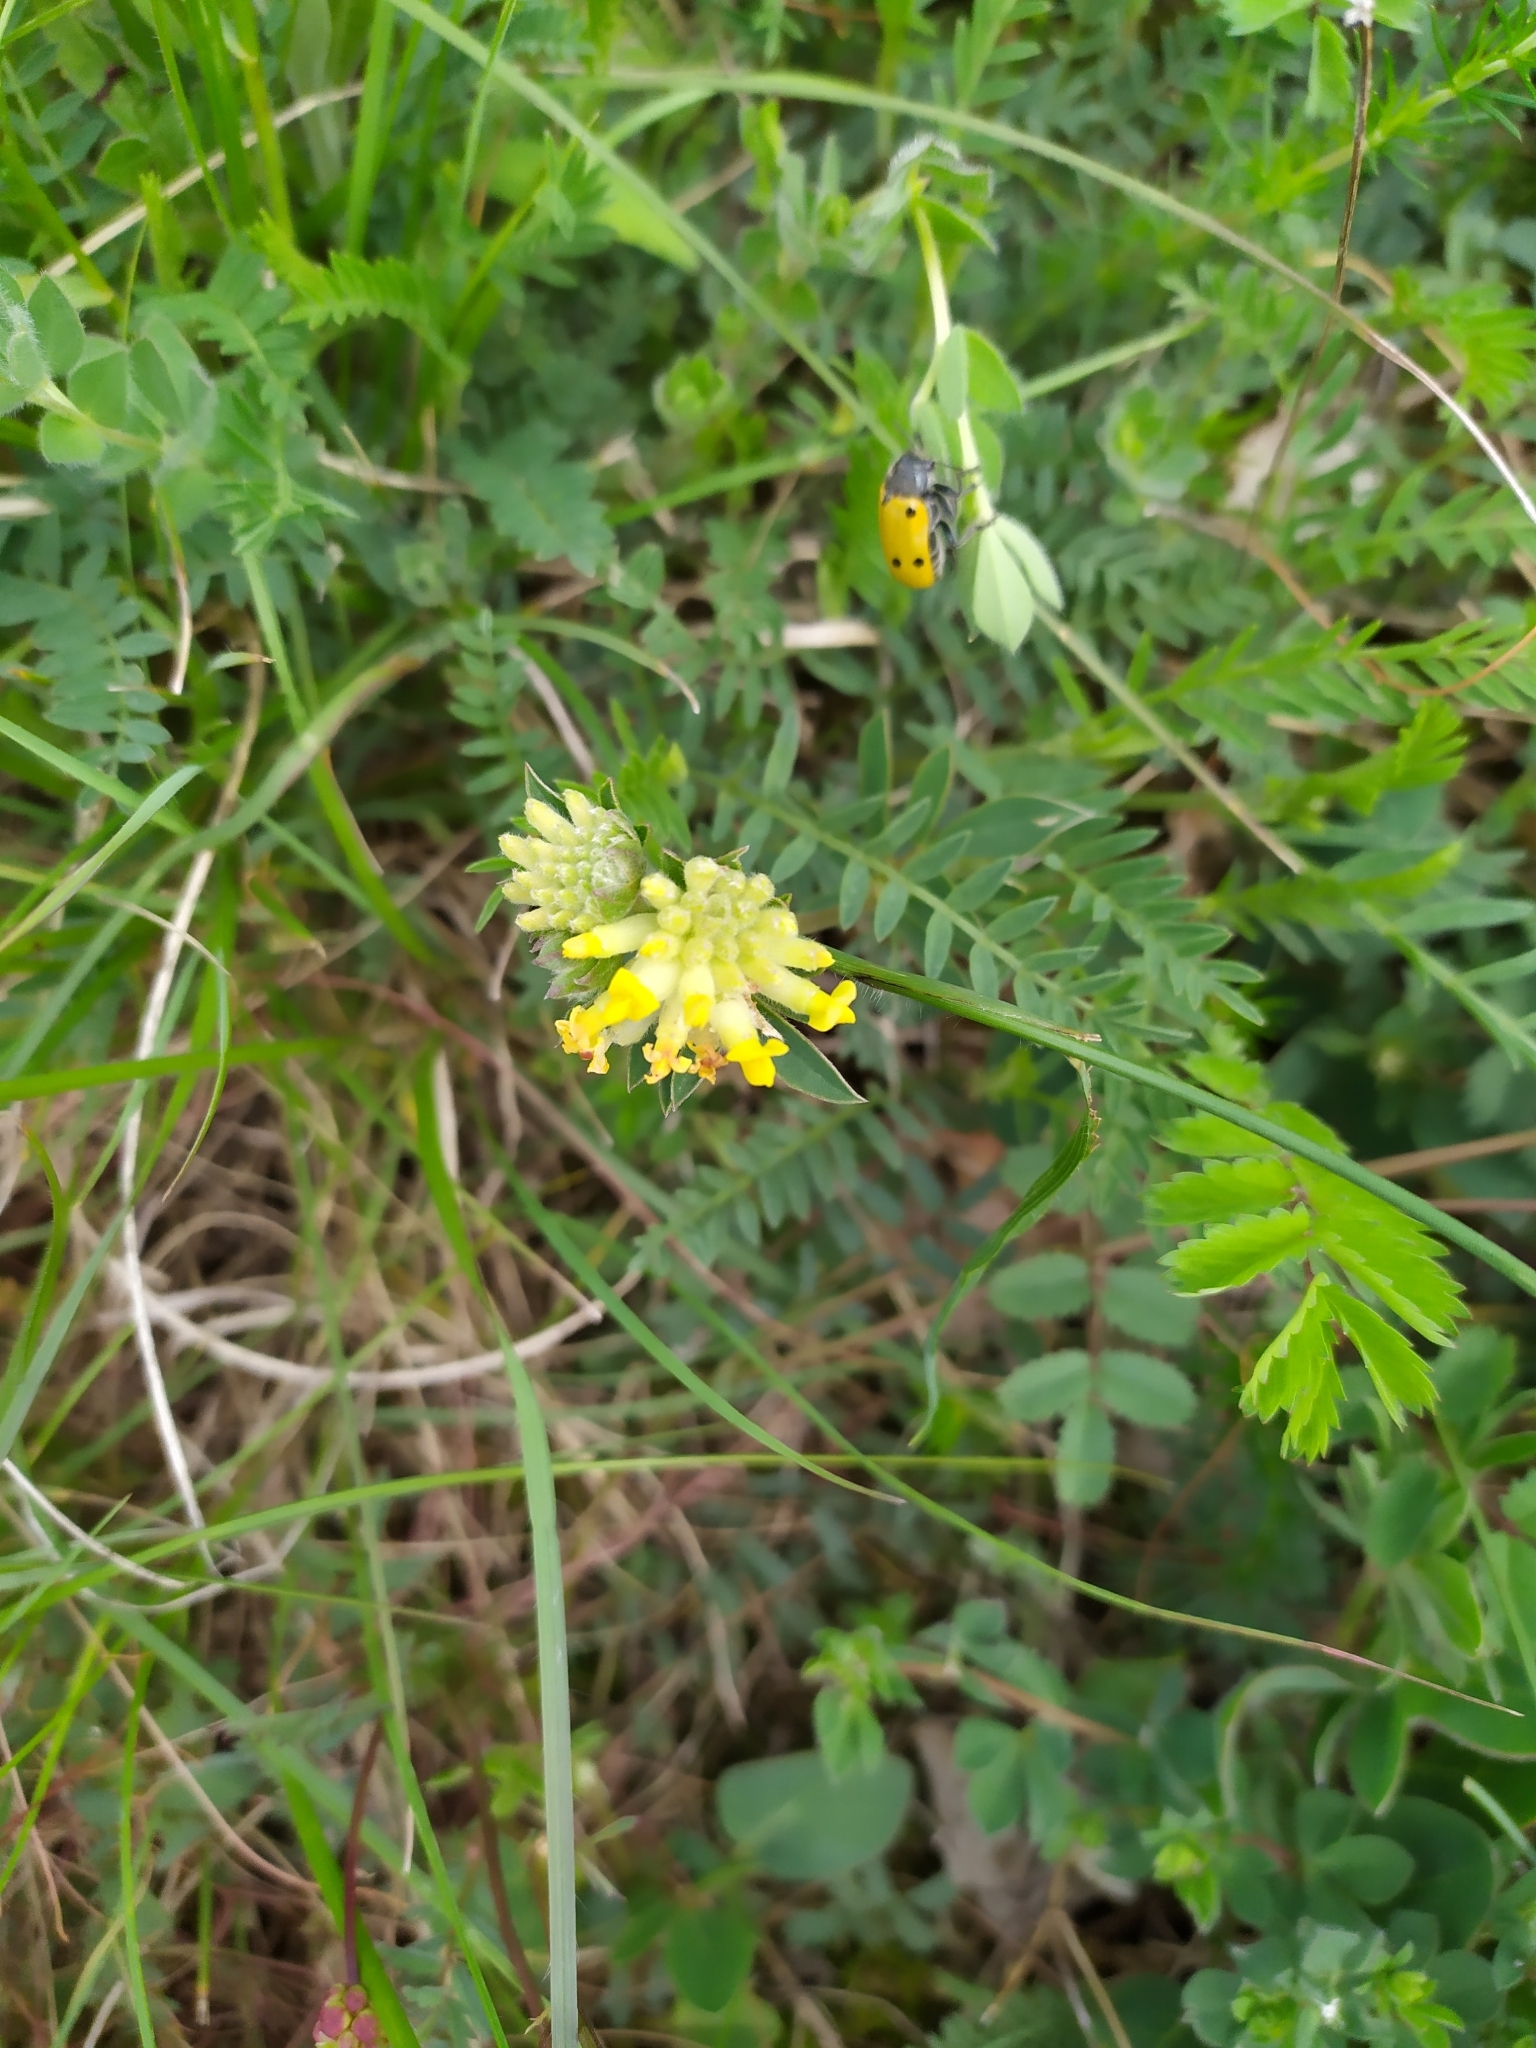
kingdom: Plantae
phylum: Tracheophyta
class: Magnoliopsida
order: Fabales
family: Fabaceae
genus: Anthyllis
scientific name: Anthyllis vulneraria
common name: Kidney vetch
